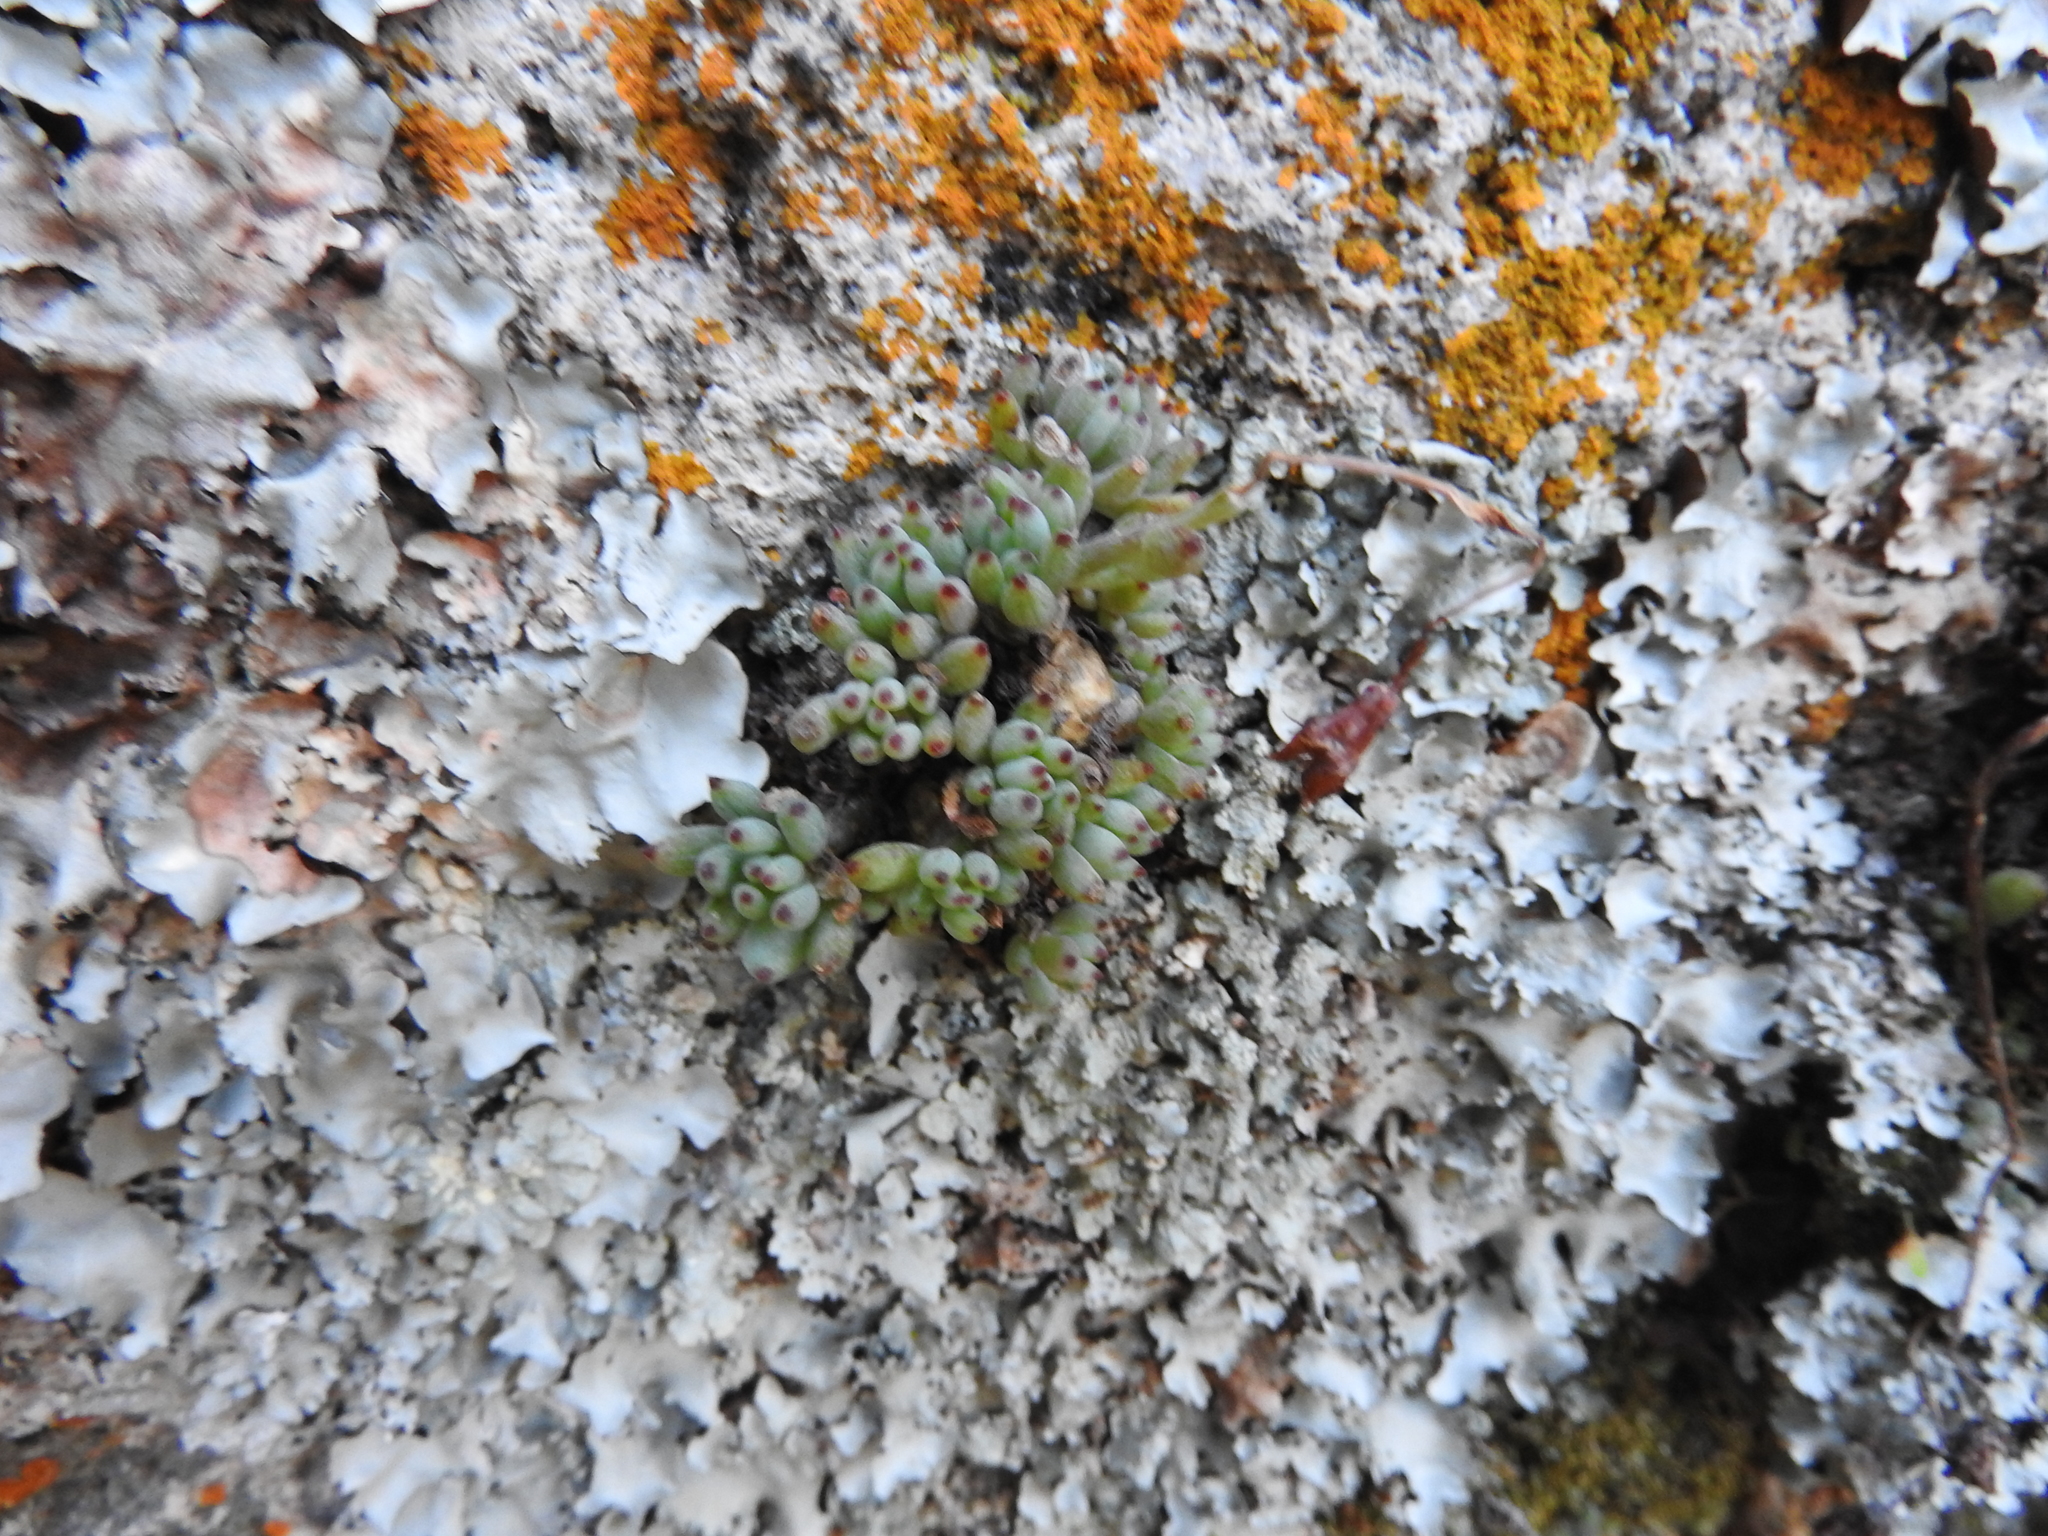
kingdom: Plantae
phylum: Tracheophyta
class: Magnoliopsida
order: Saxifragales
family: Crassulaceae
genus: Graptopetalum
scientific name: Graptopetalum pachyphyllum
